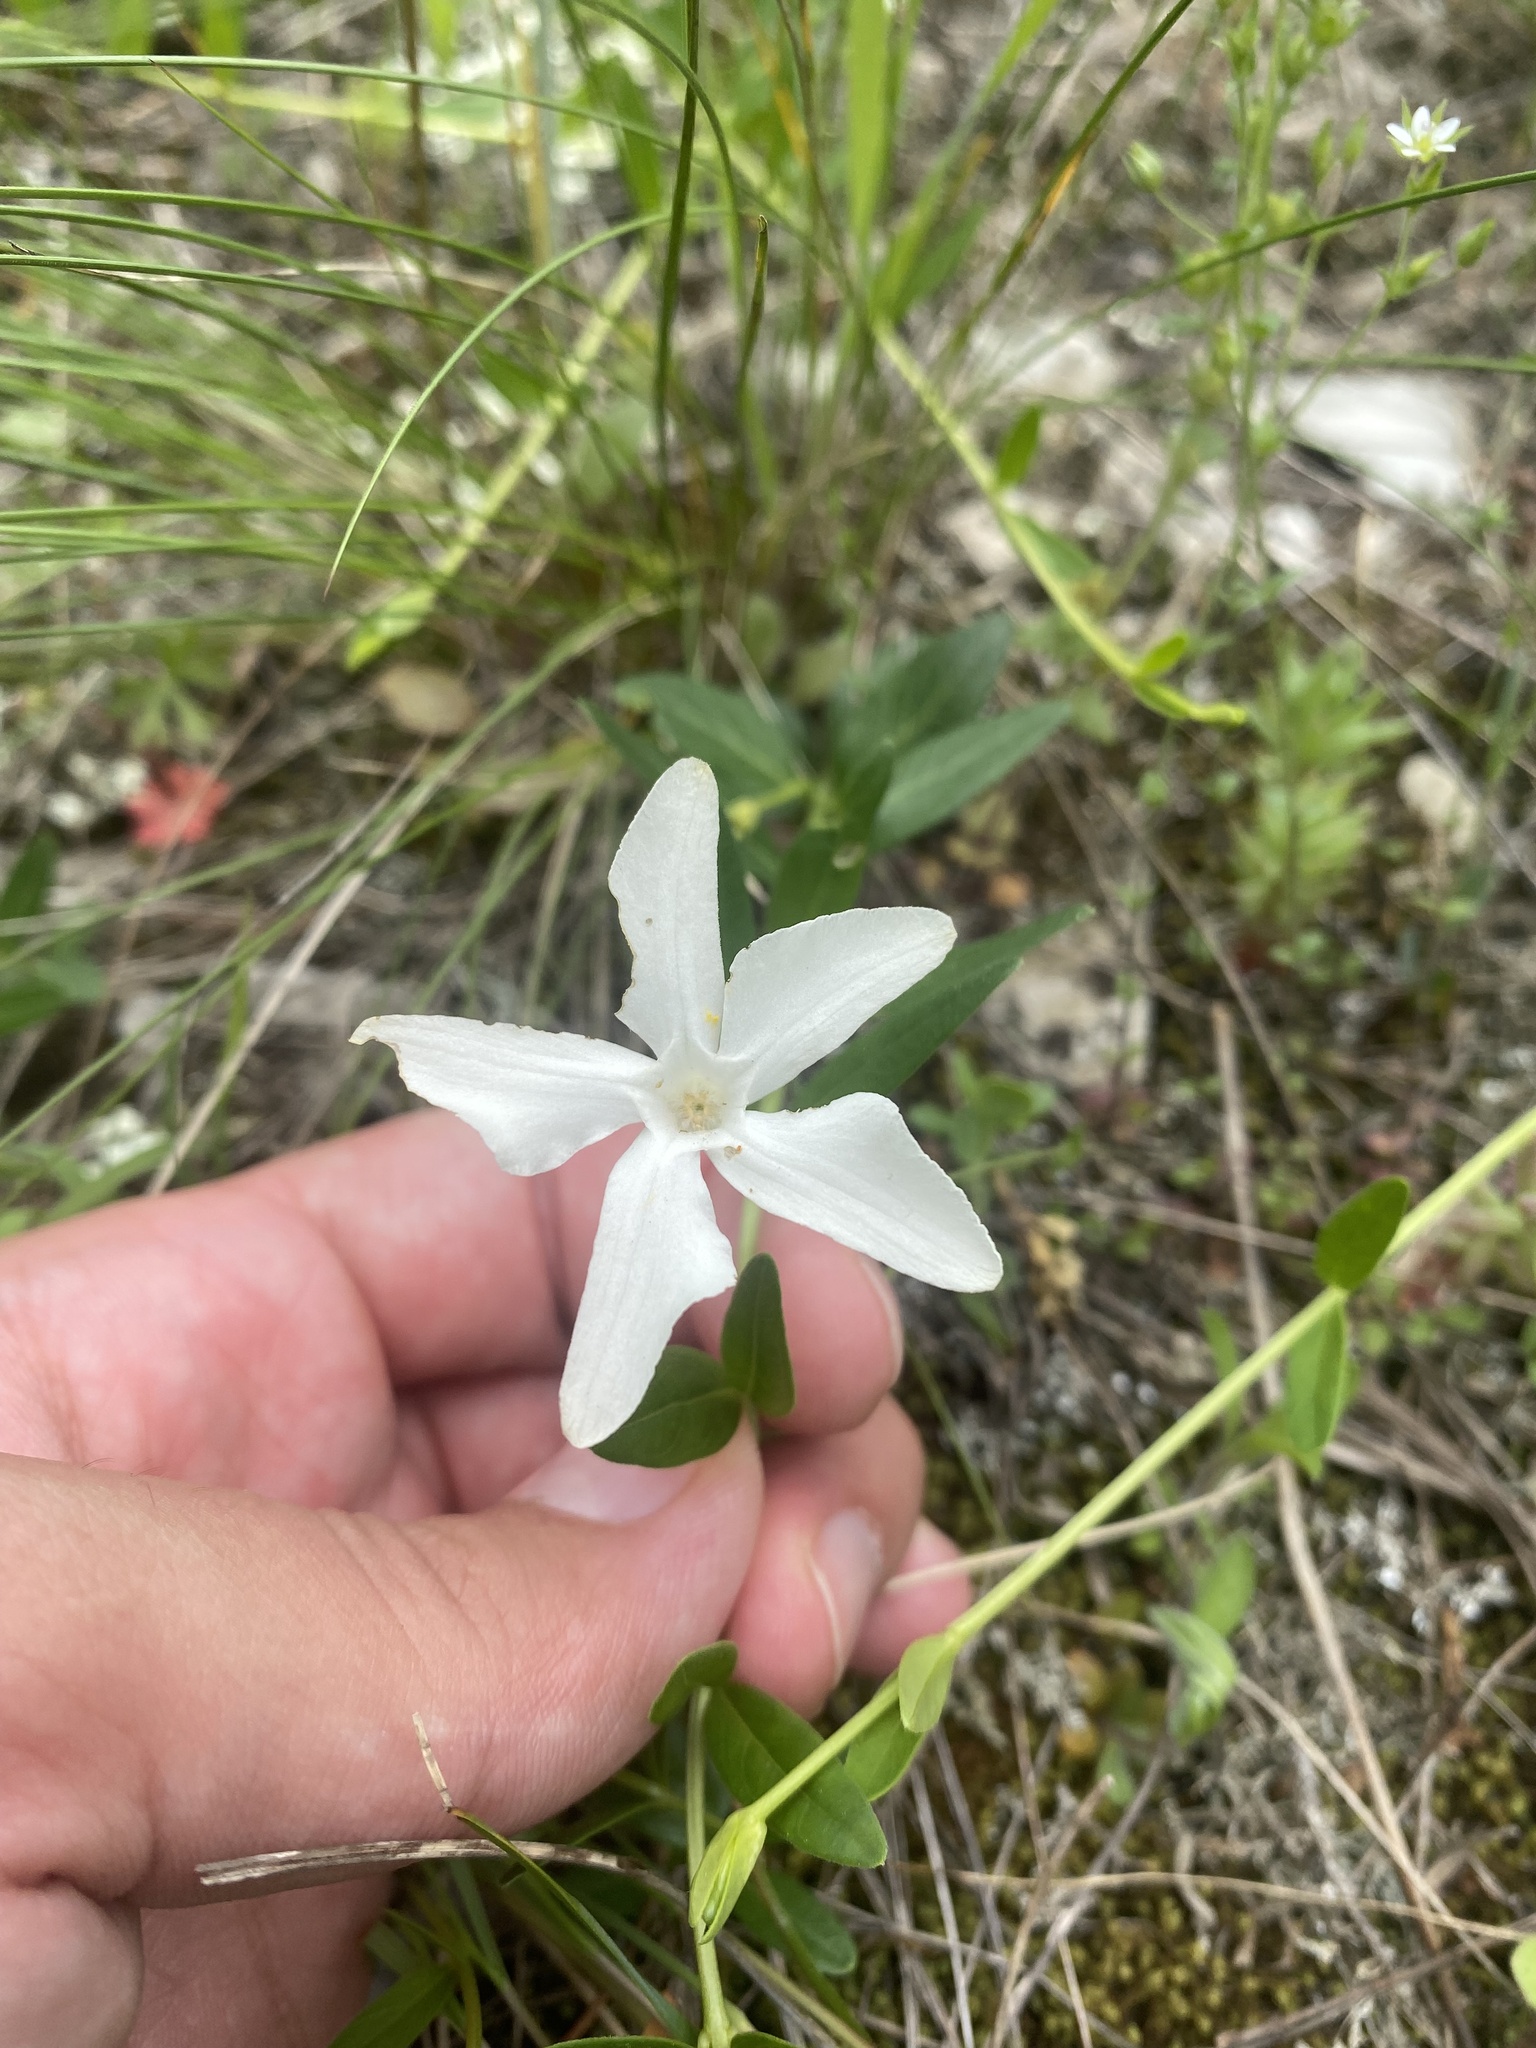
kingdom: Plantae
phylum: Tracheophyta
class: Magnoliopsida
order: Gentianales
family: Apocynaceae
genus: Vinca
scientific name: Vinca herbacea
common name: Herbaceous periwinkle
